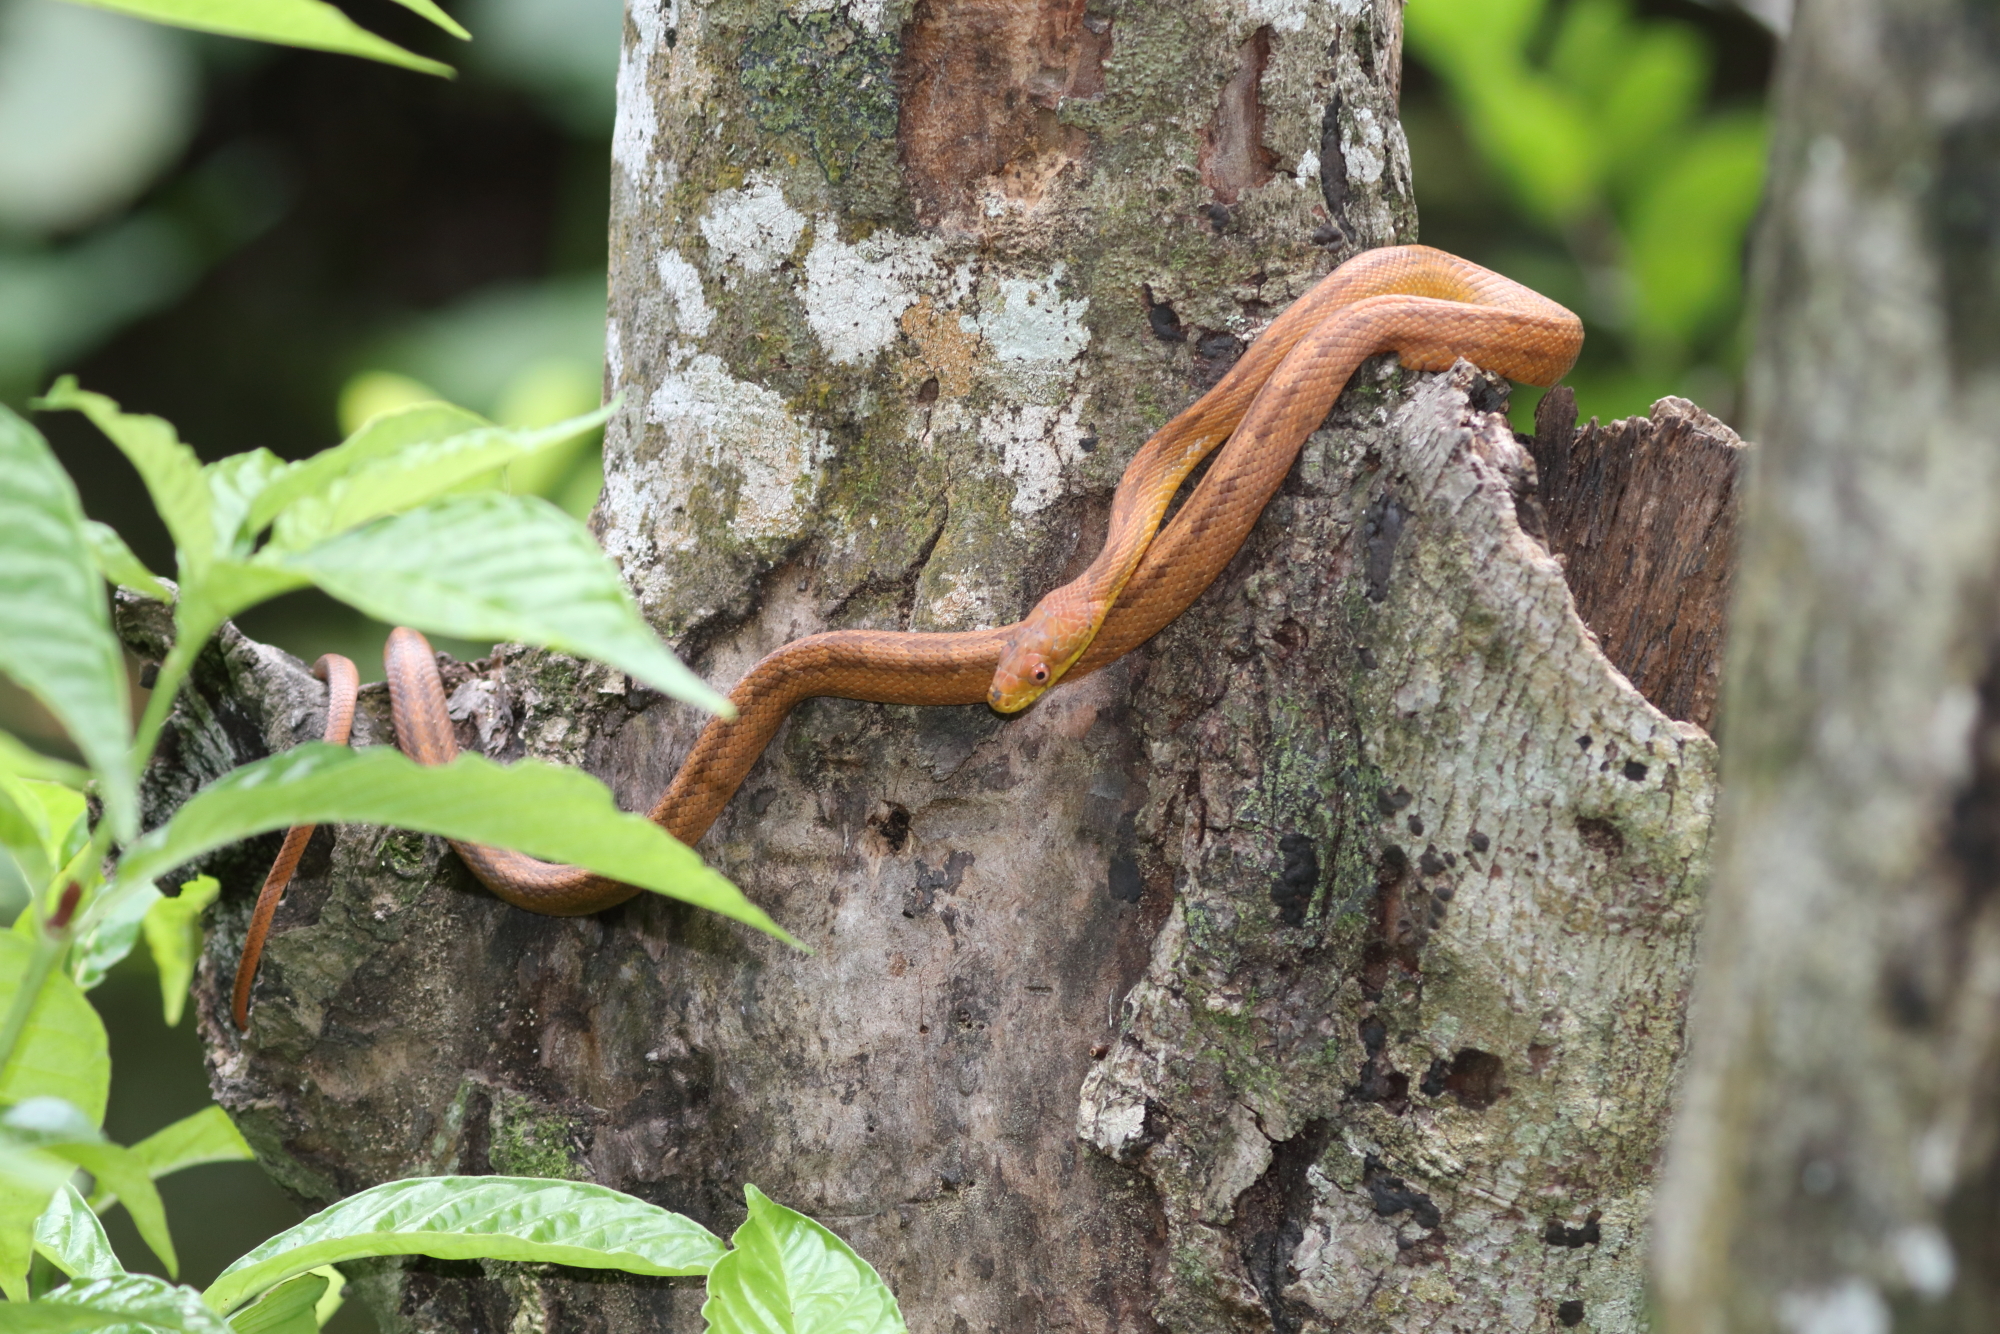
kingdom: Animalia
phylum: Chordata
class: Squamata
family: Colubridae
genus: Pantherophis
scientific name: Pantherophis alleghaniensis
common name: Eastern rat snake
